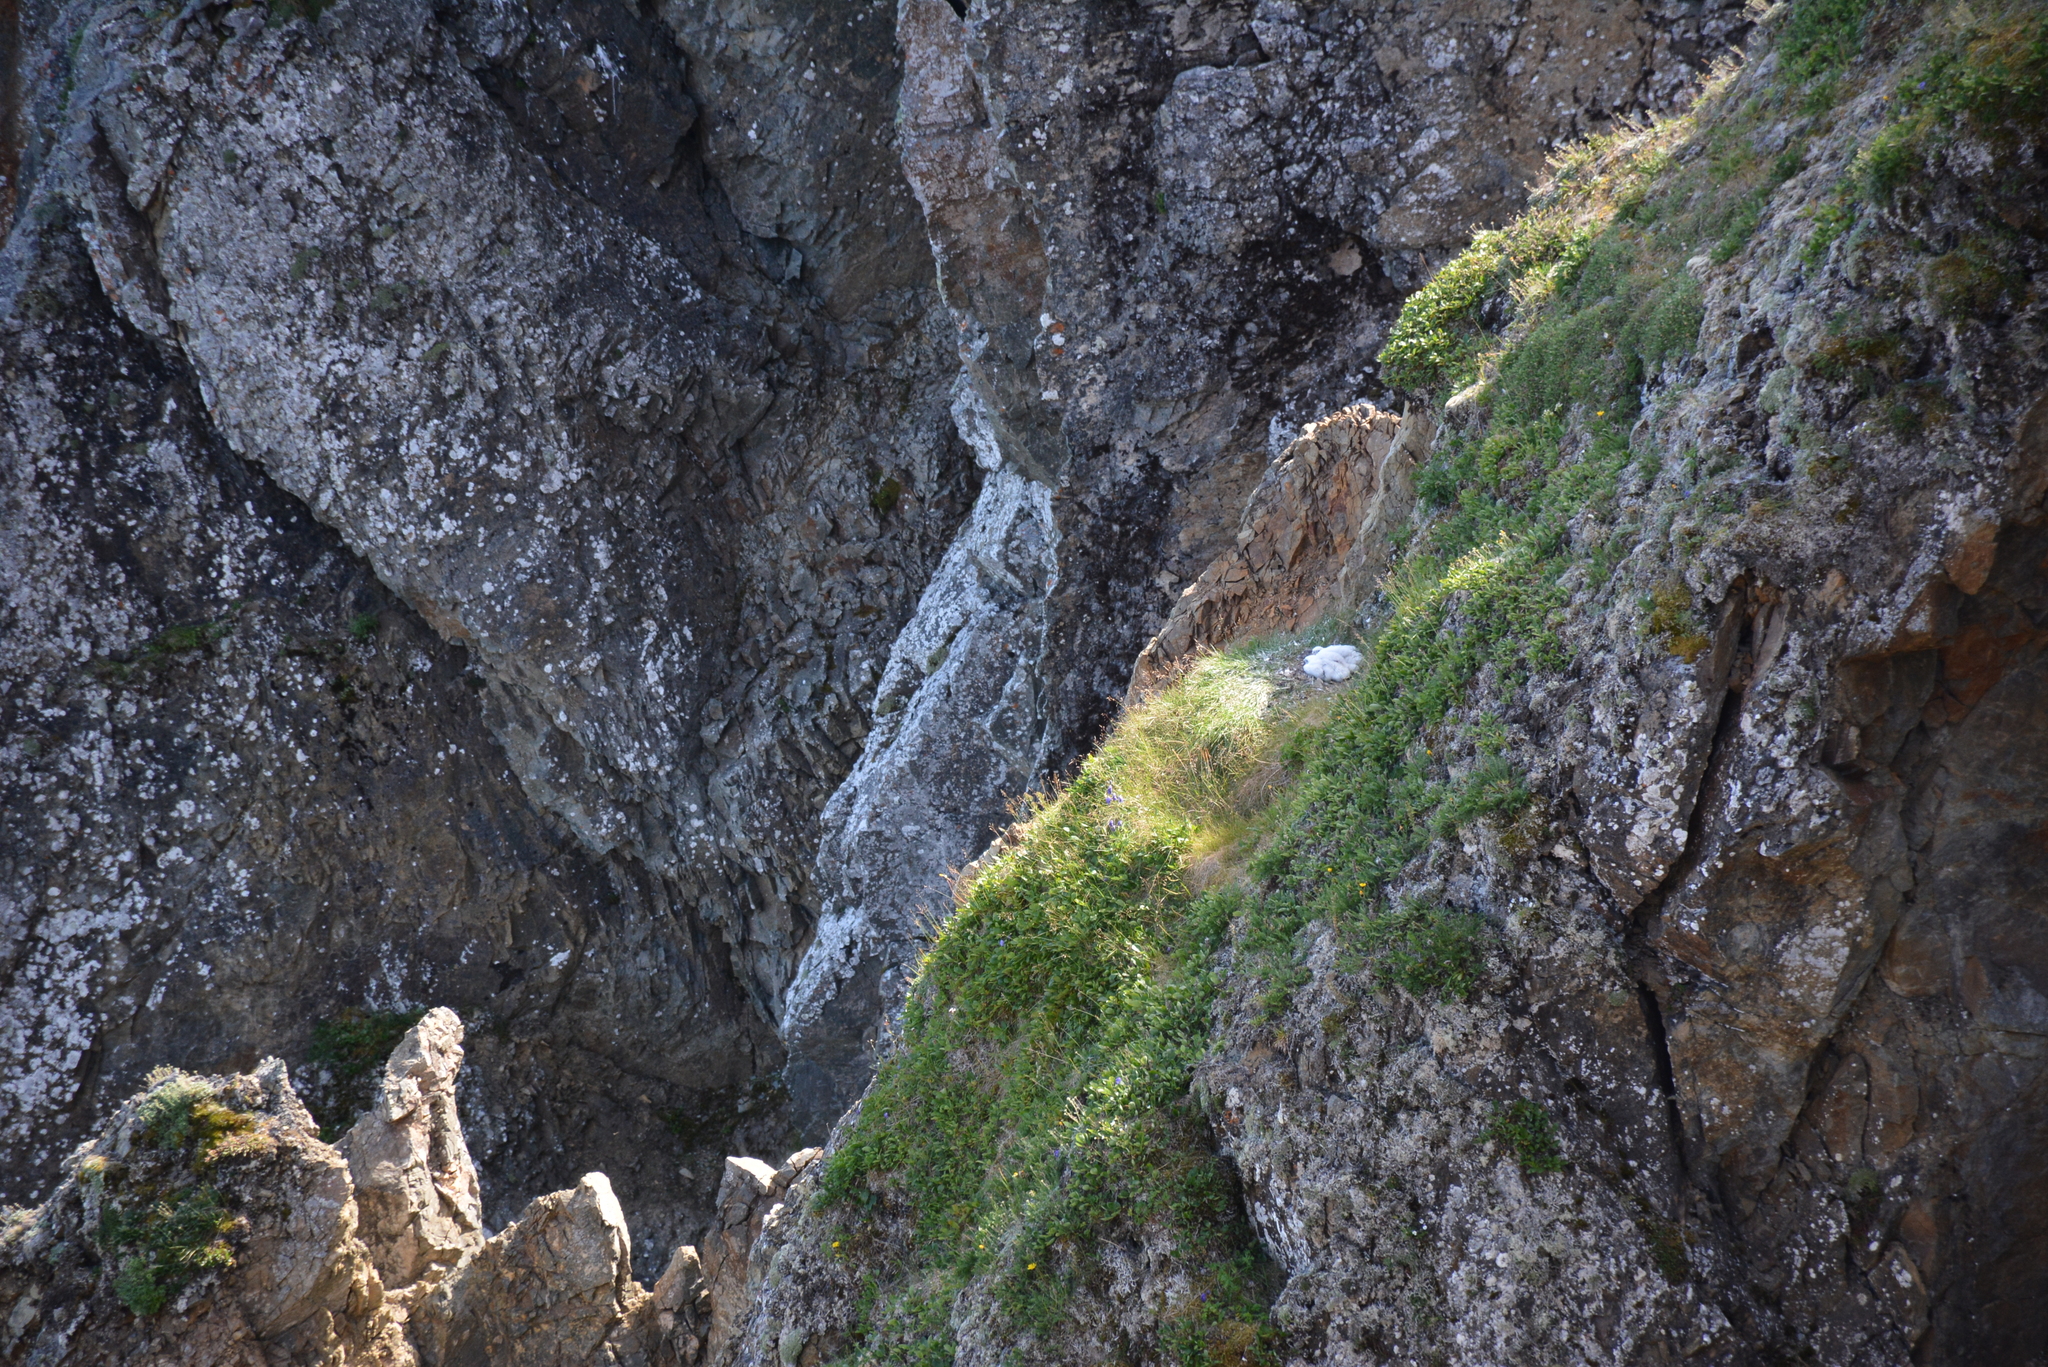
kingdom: Animalia
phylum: Chordata
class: Aves
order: Falconiformes
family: Falconidae
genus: Falco
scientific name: Falco peregrinus
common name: Peregrine falcon
